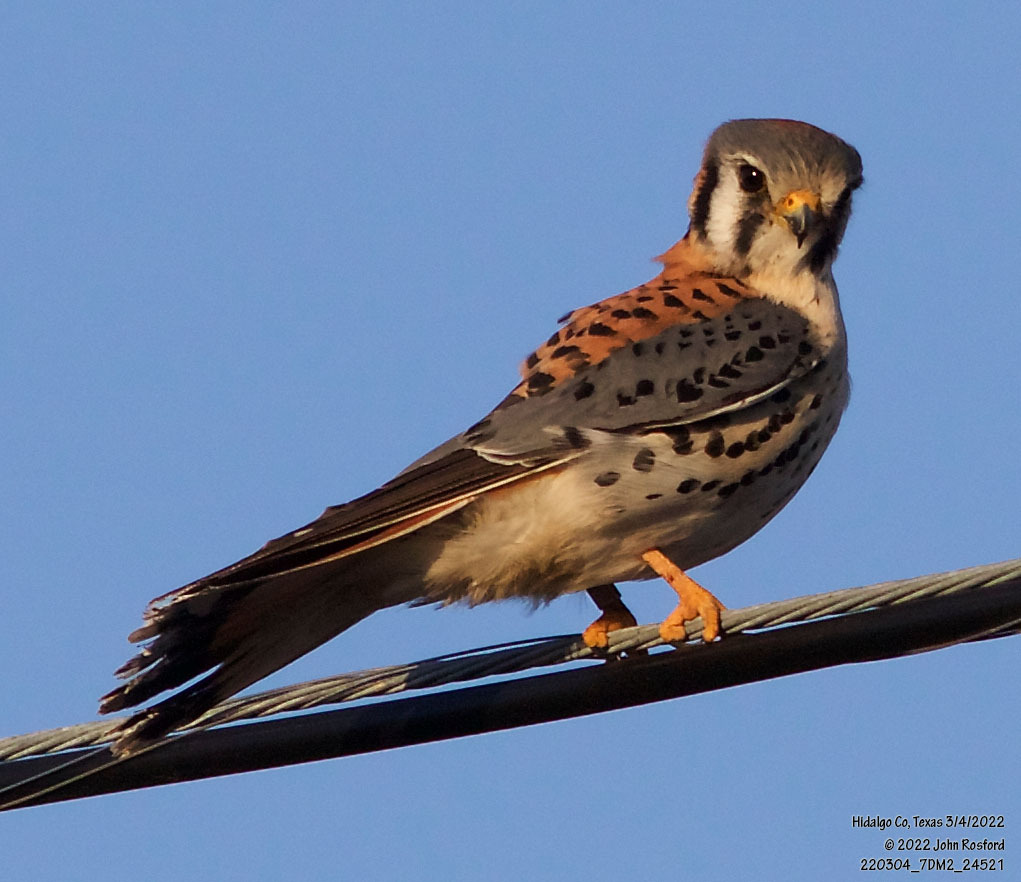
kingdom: Animalia
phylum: Chordata
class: Aves
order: Falconiformes
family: Falconidae
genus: Falco
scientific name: Falco sparverius
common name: American kestrel
